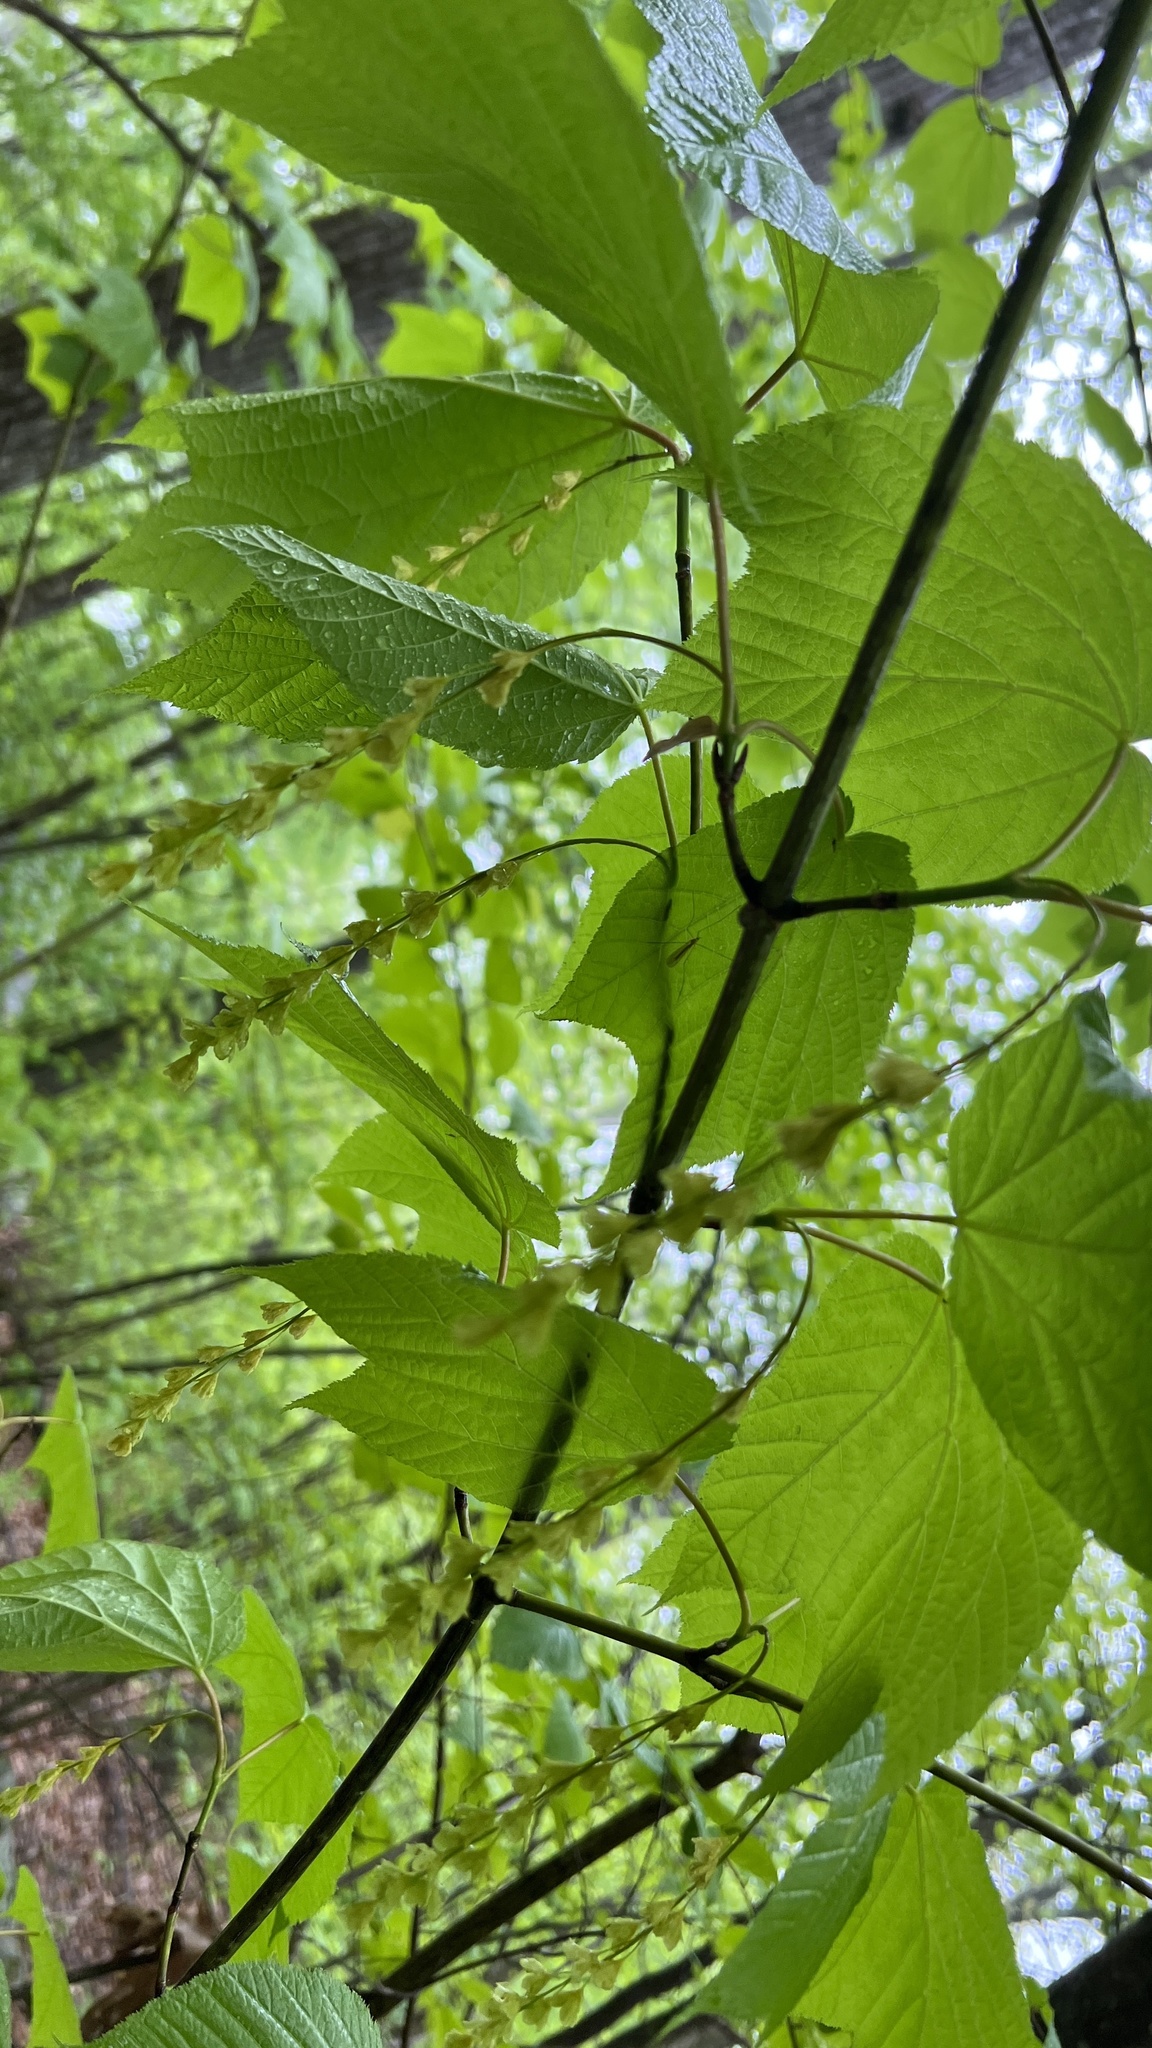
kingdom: Plantae
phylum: Tracheophyta
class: Magnoliopsida
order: Sapindales
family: Sapindaceae
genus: Acer
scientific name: Acer pensylvanicum
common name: Moosewood
